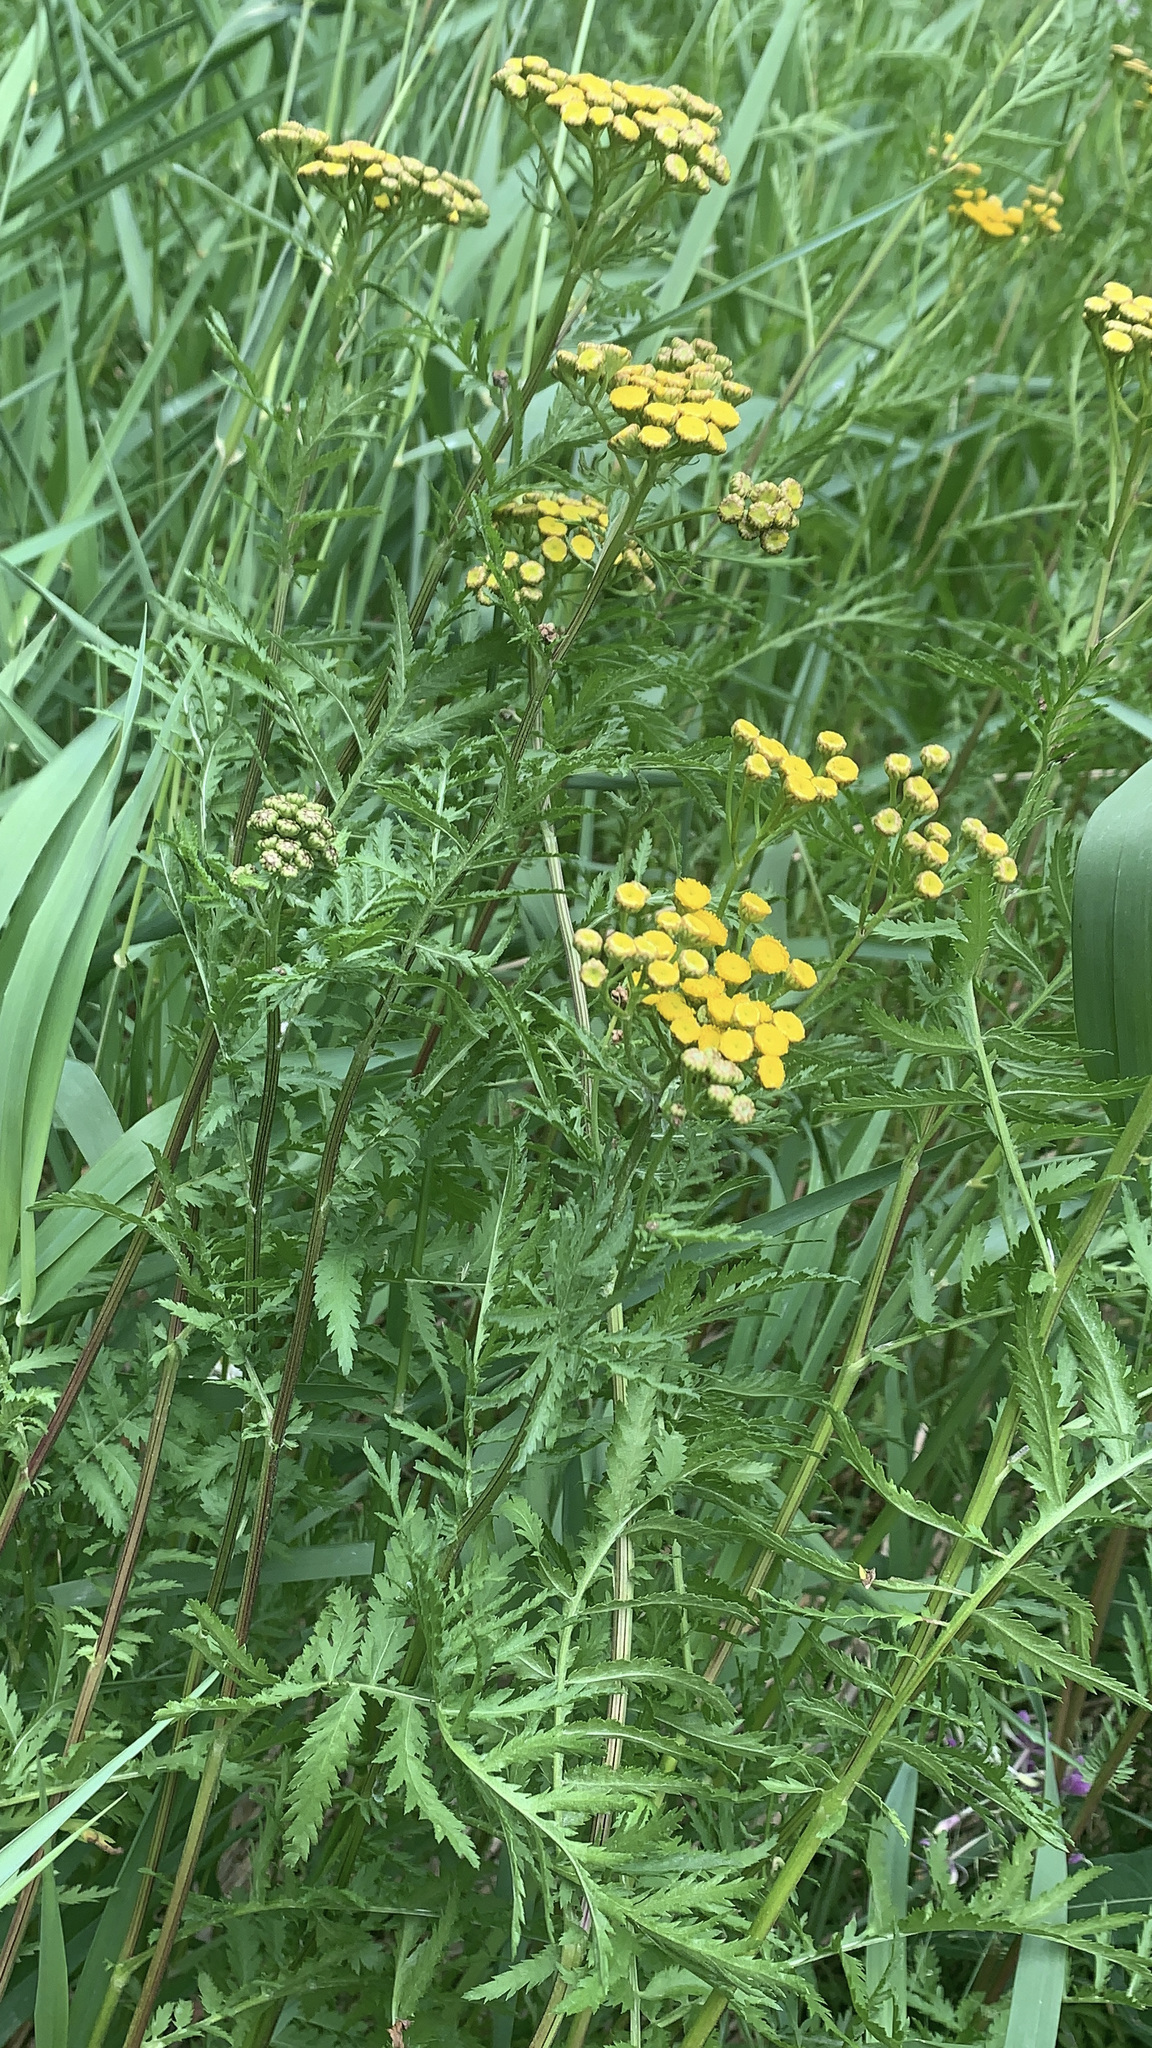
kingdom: Plantae
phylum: Tracheophyta
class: Magnoliopsida
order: Asterales
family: Asteraceae
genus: Tanacetum
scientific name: Tanacetum vulgare
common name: Common tansy
